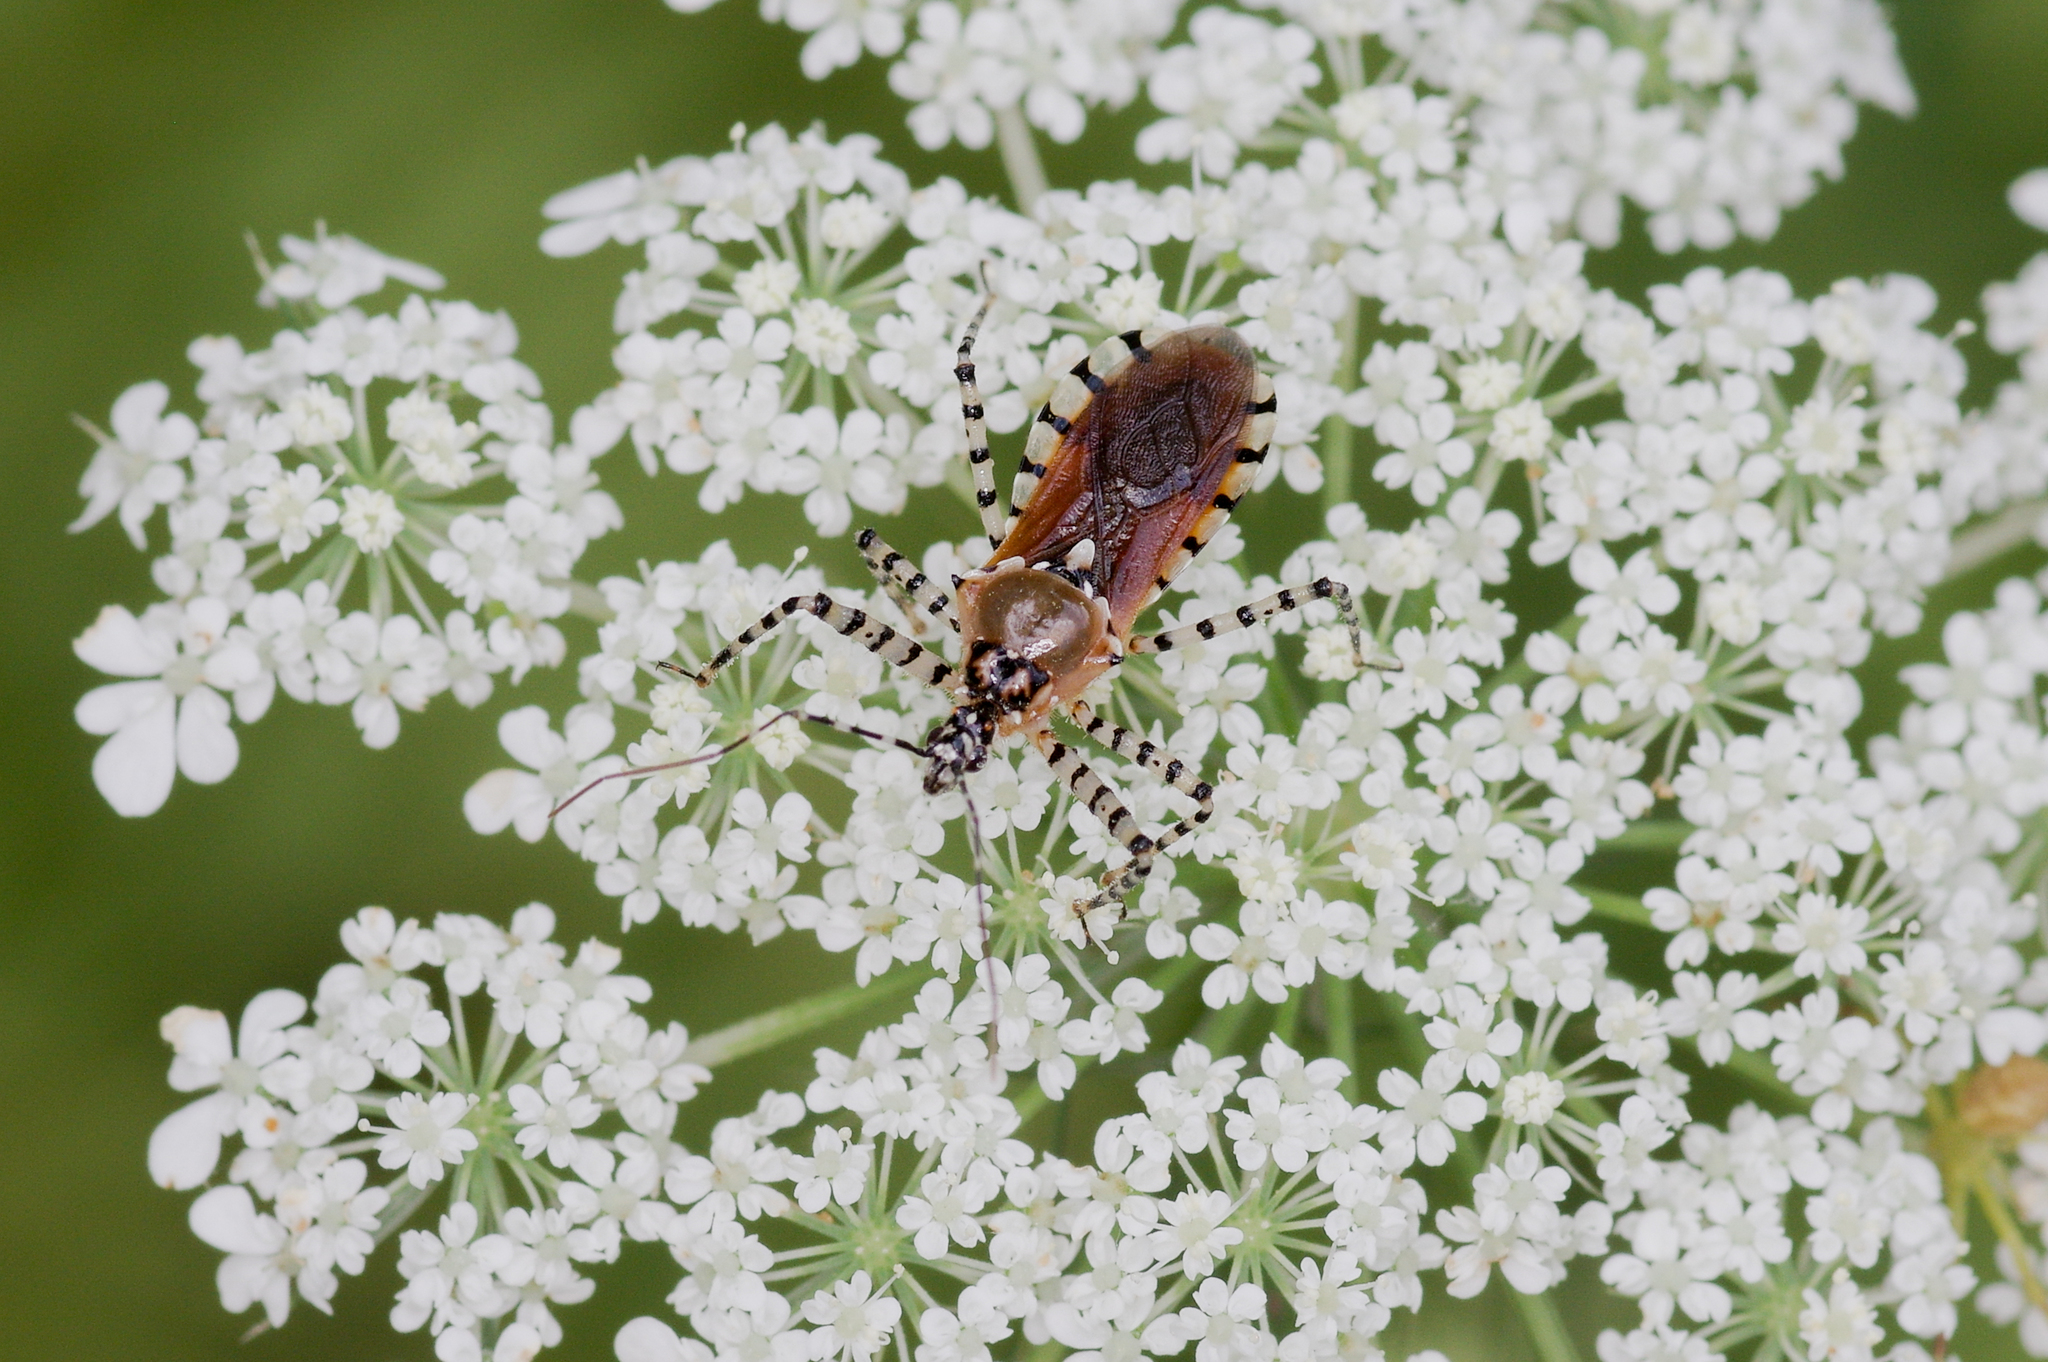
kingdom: Animalia
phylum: Arthropoda
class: Insecta
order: Hemiptera
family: Reduviidae
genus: Pselliopus
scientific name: Pselliopus cinctus
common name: Ringed assassin bug
